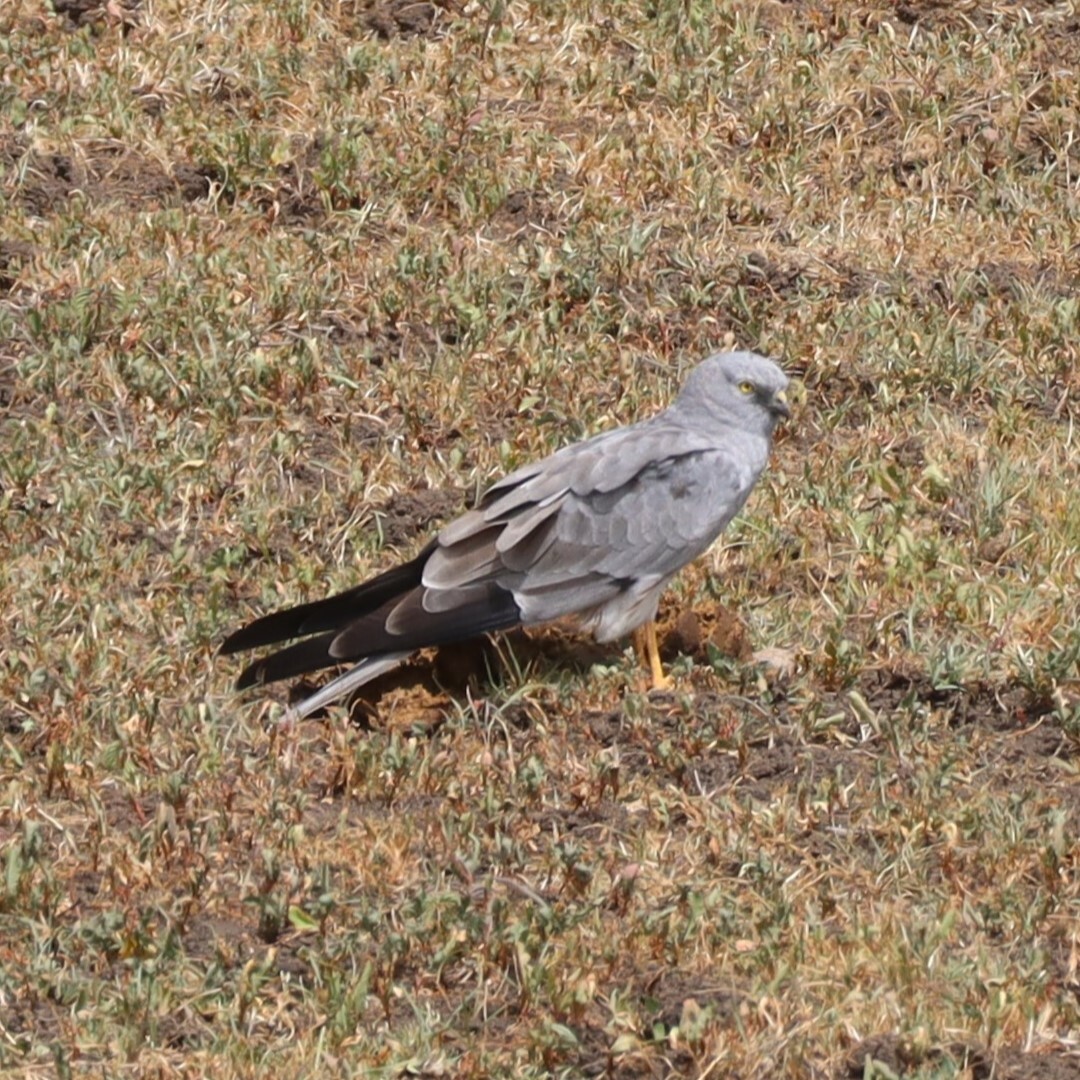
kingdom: Animalia
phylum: Chordata
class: Aves
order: Accipitriformes
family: Accipitridae
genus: Circus
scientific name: Circus pygargus
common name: Montagu's harrier
